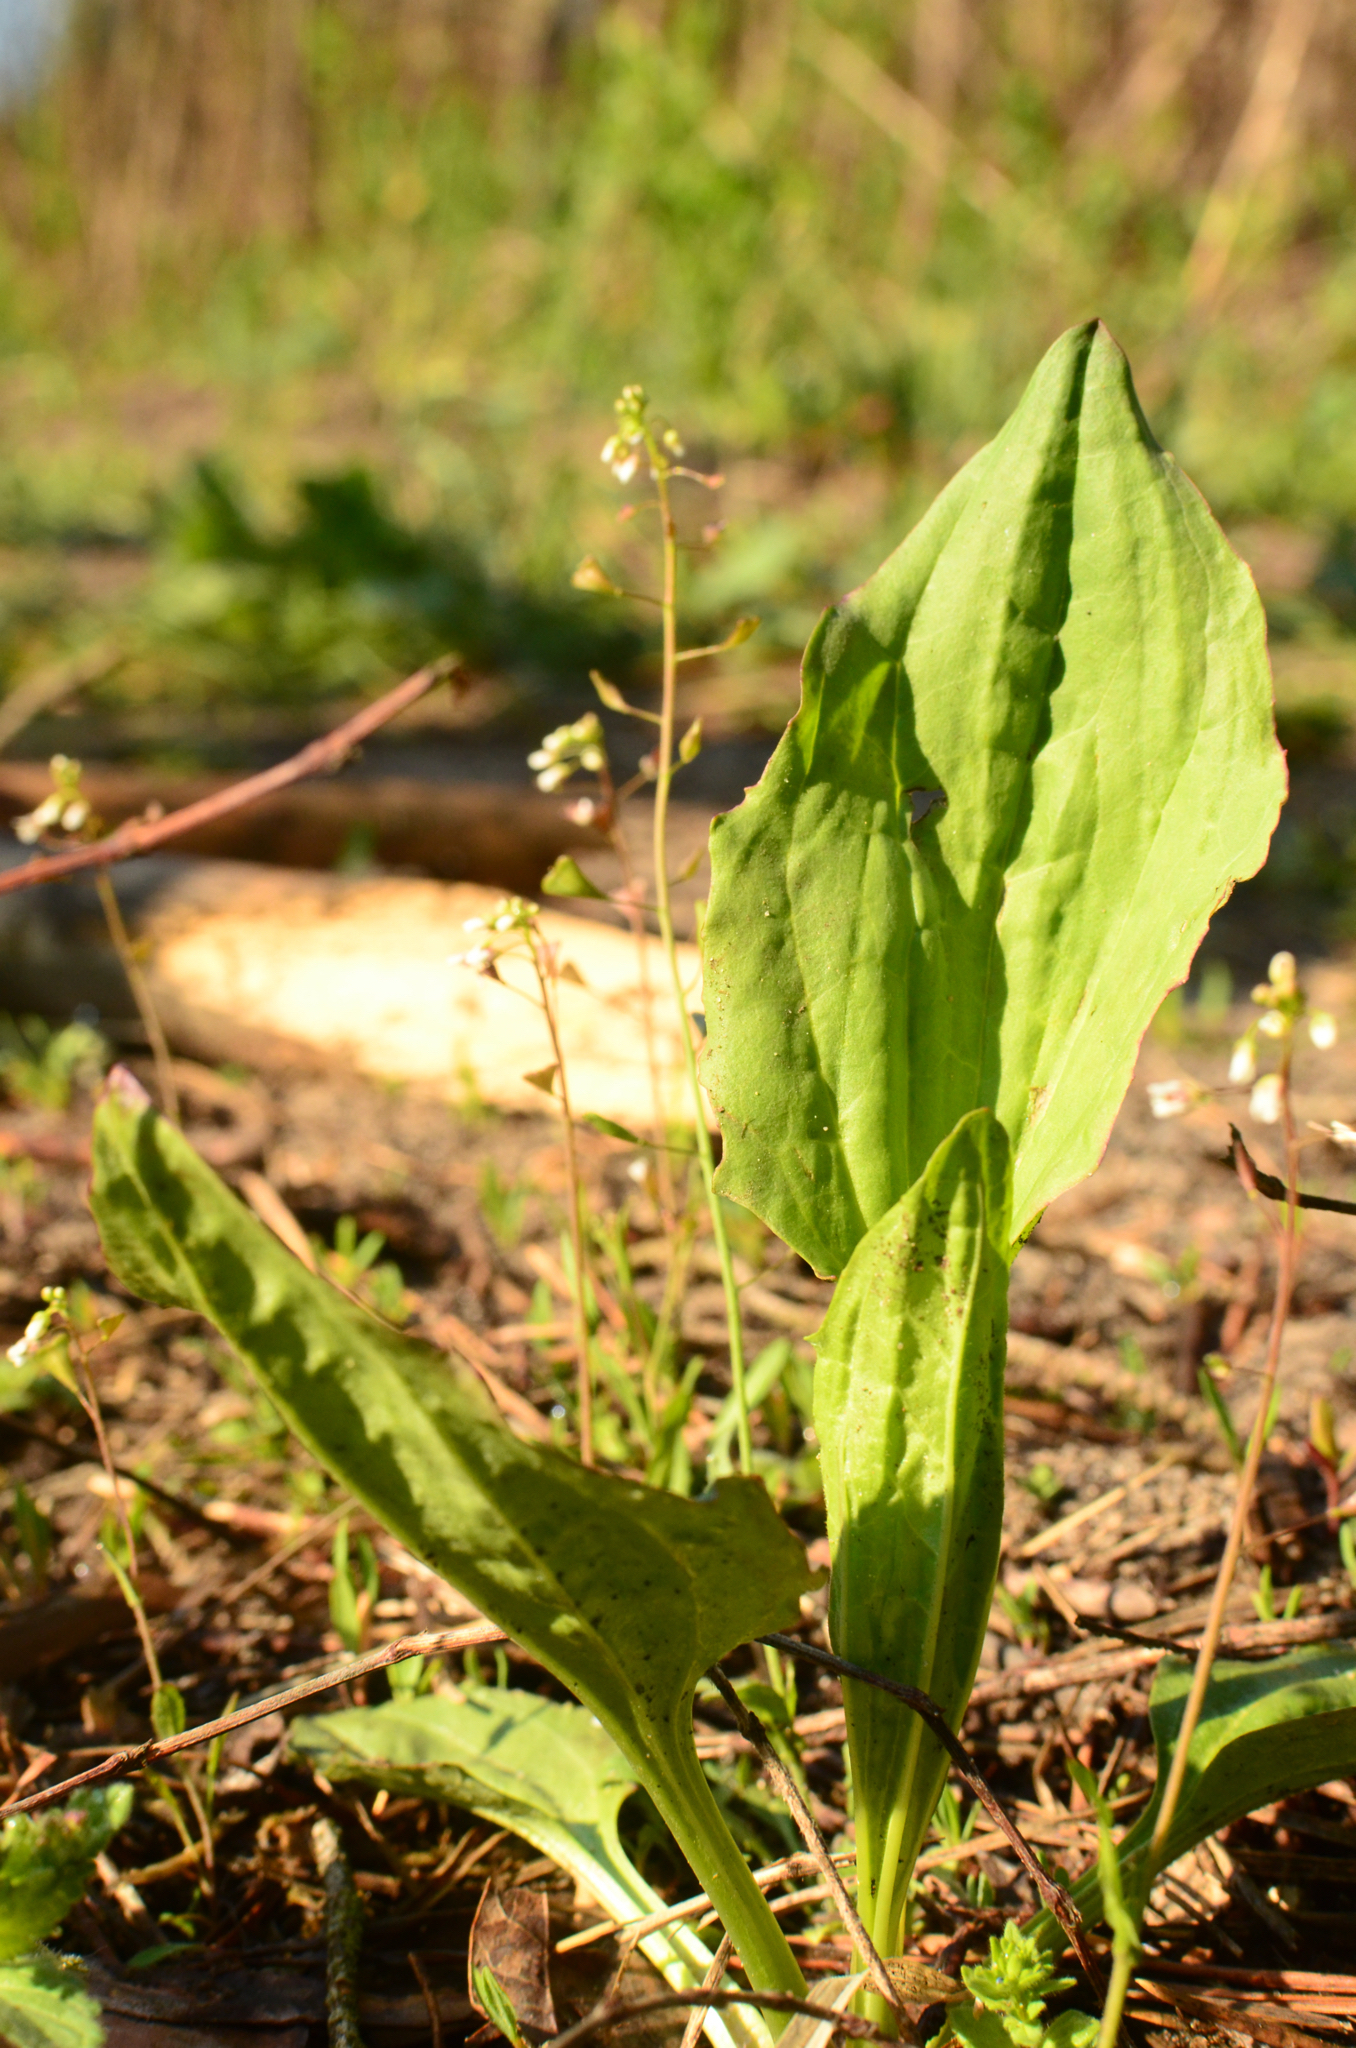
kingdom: Plantae
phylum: Tracheophyta
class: Magnoliopsida
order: Lamiales
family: Plantaginaceae
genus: Plantago
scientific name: Plantago major
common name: Common plantain
